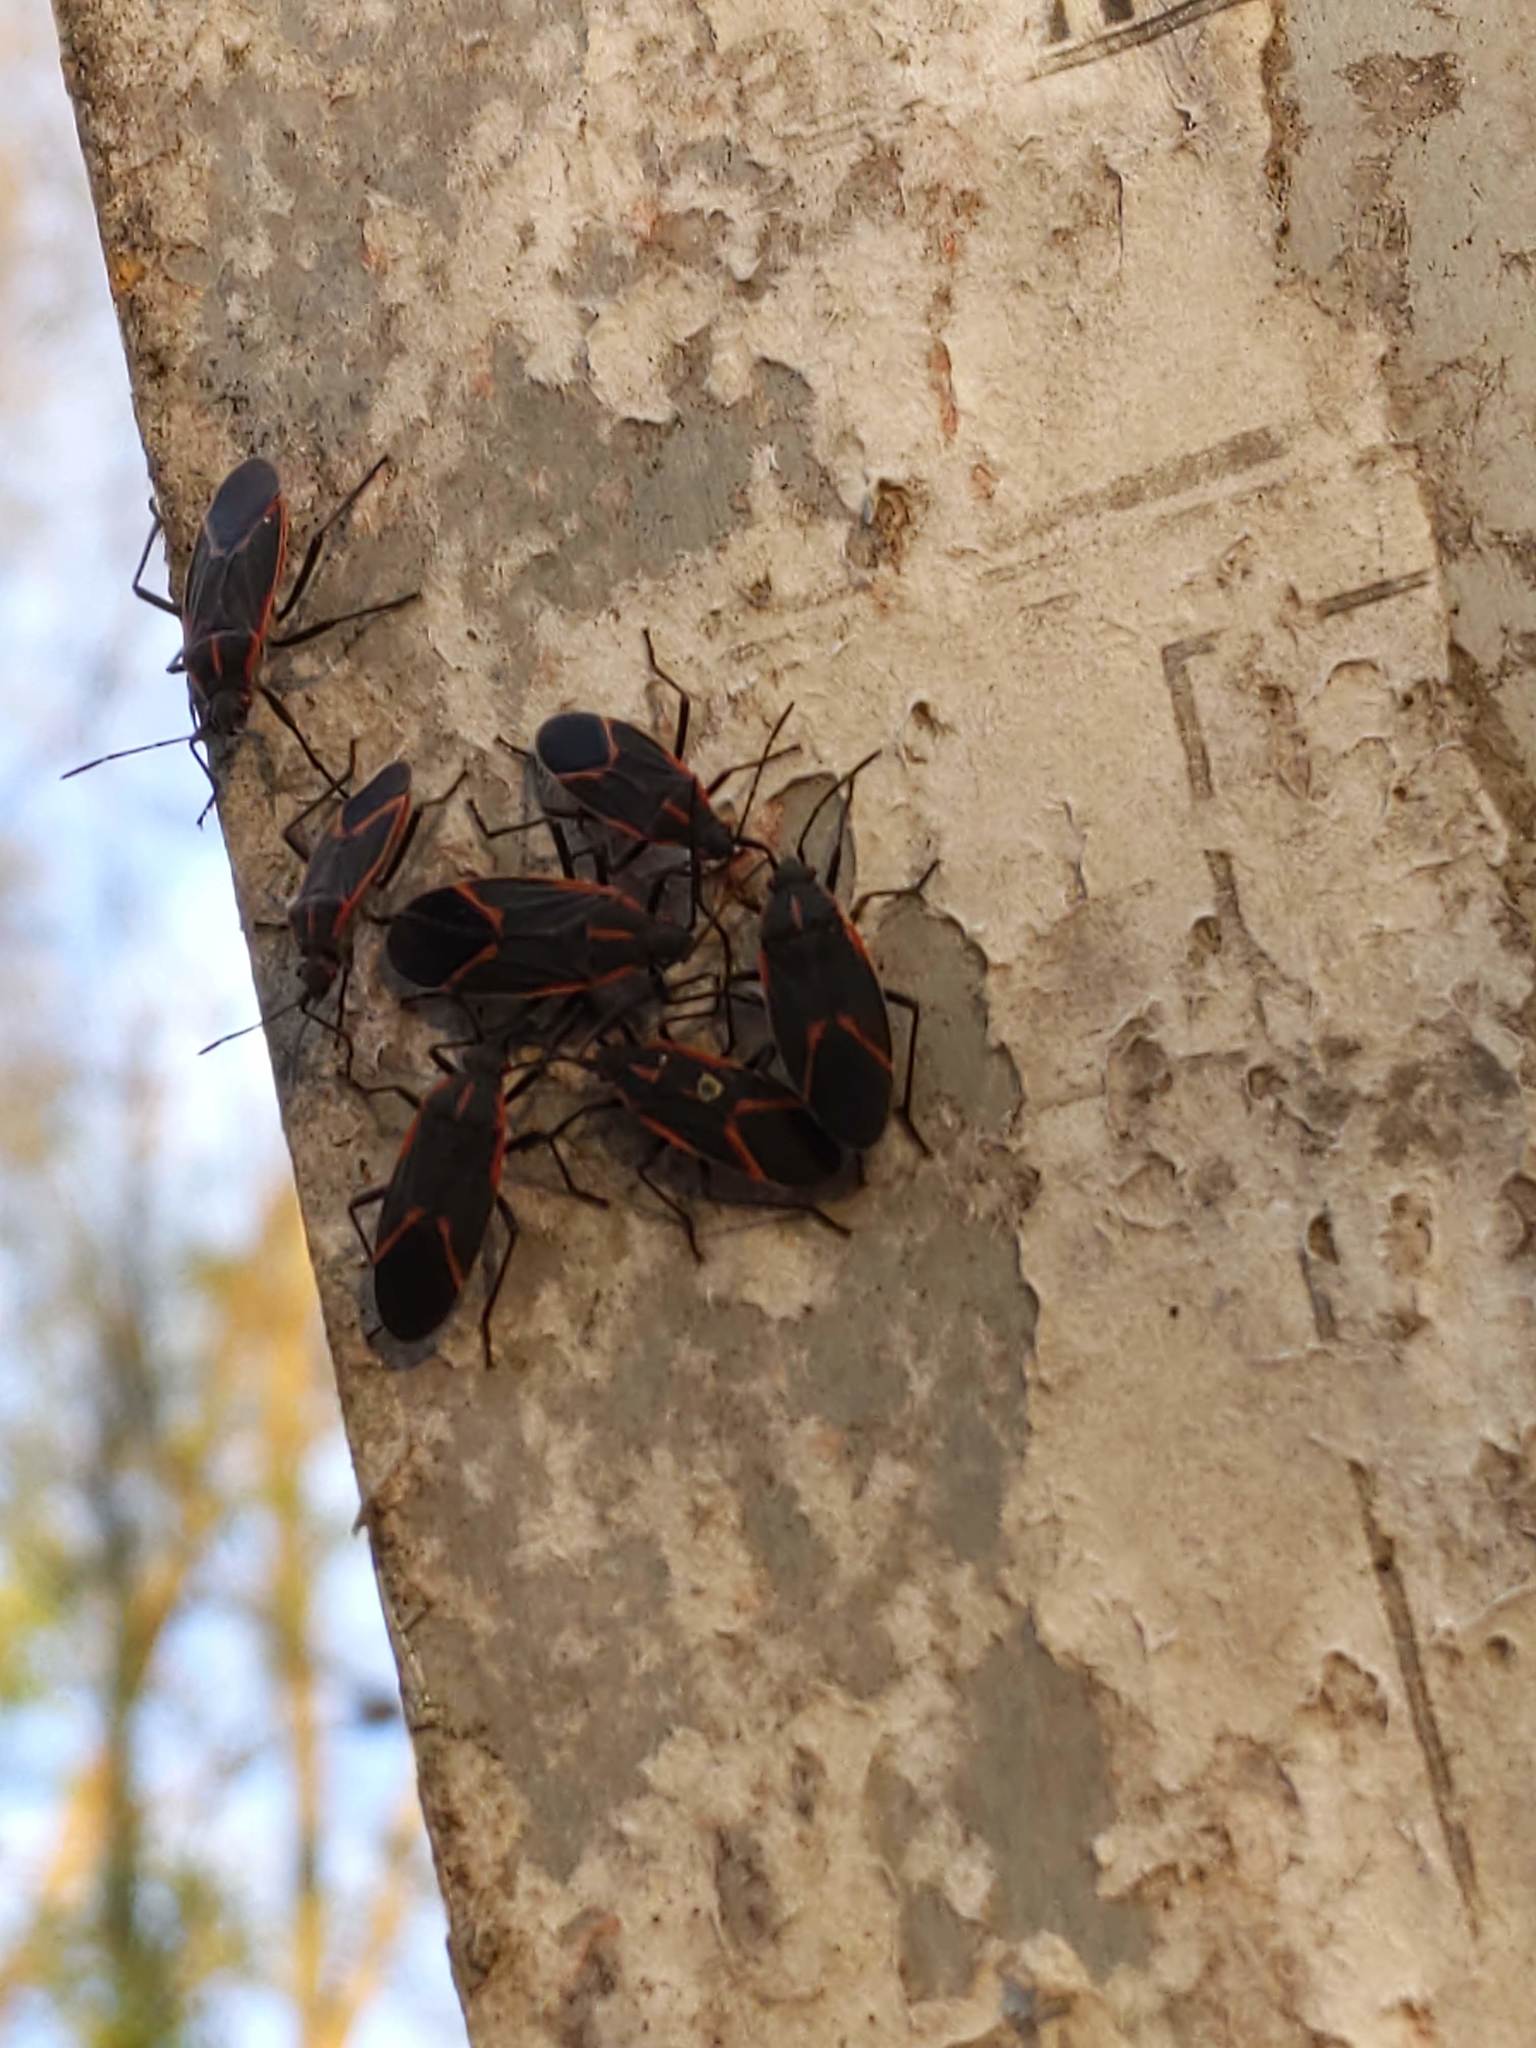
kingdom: Animalia
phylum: Arthropoda
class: Insecta
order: Hemiptera
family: Rhopalidae
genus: Boisea
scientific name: Boisea trivittata
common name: Boxelder bug
